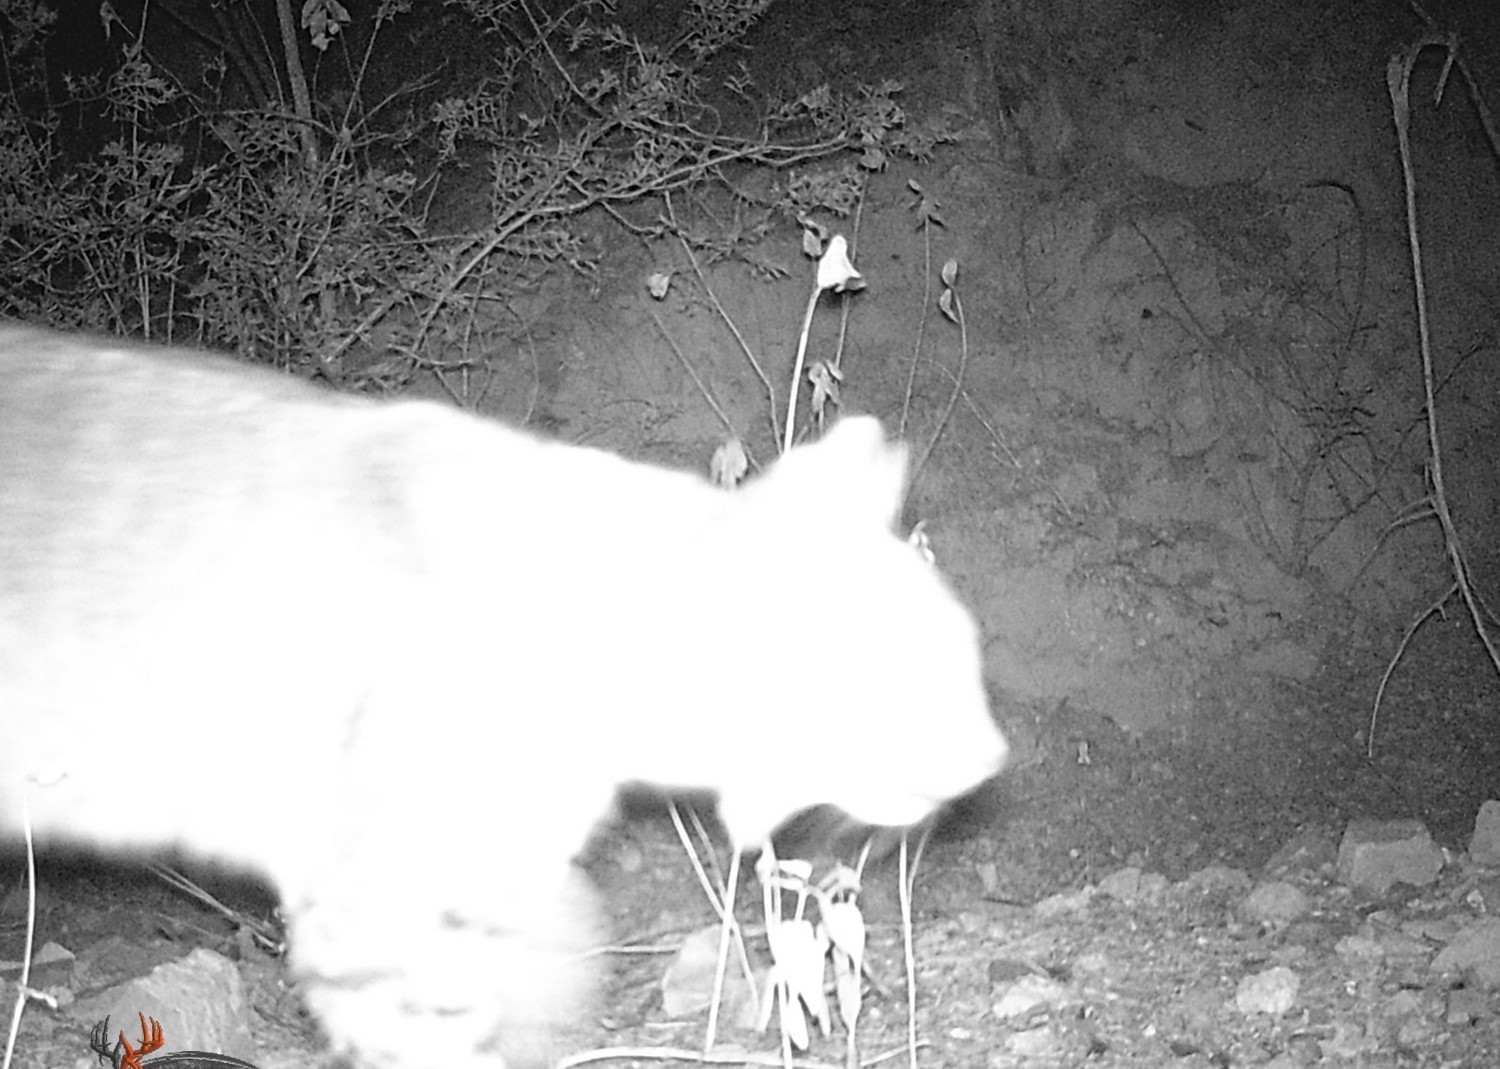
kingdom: Animalia
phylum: Chordata
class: Mammalia
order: Carnivora
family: Felidae
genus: Lynx
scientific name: Lynx rufus
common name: Bobcat
